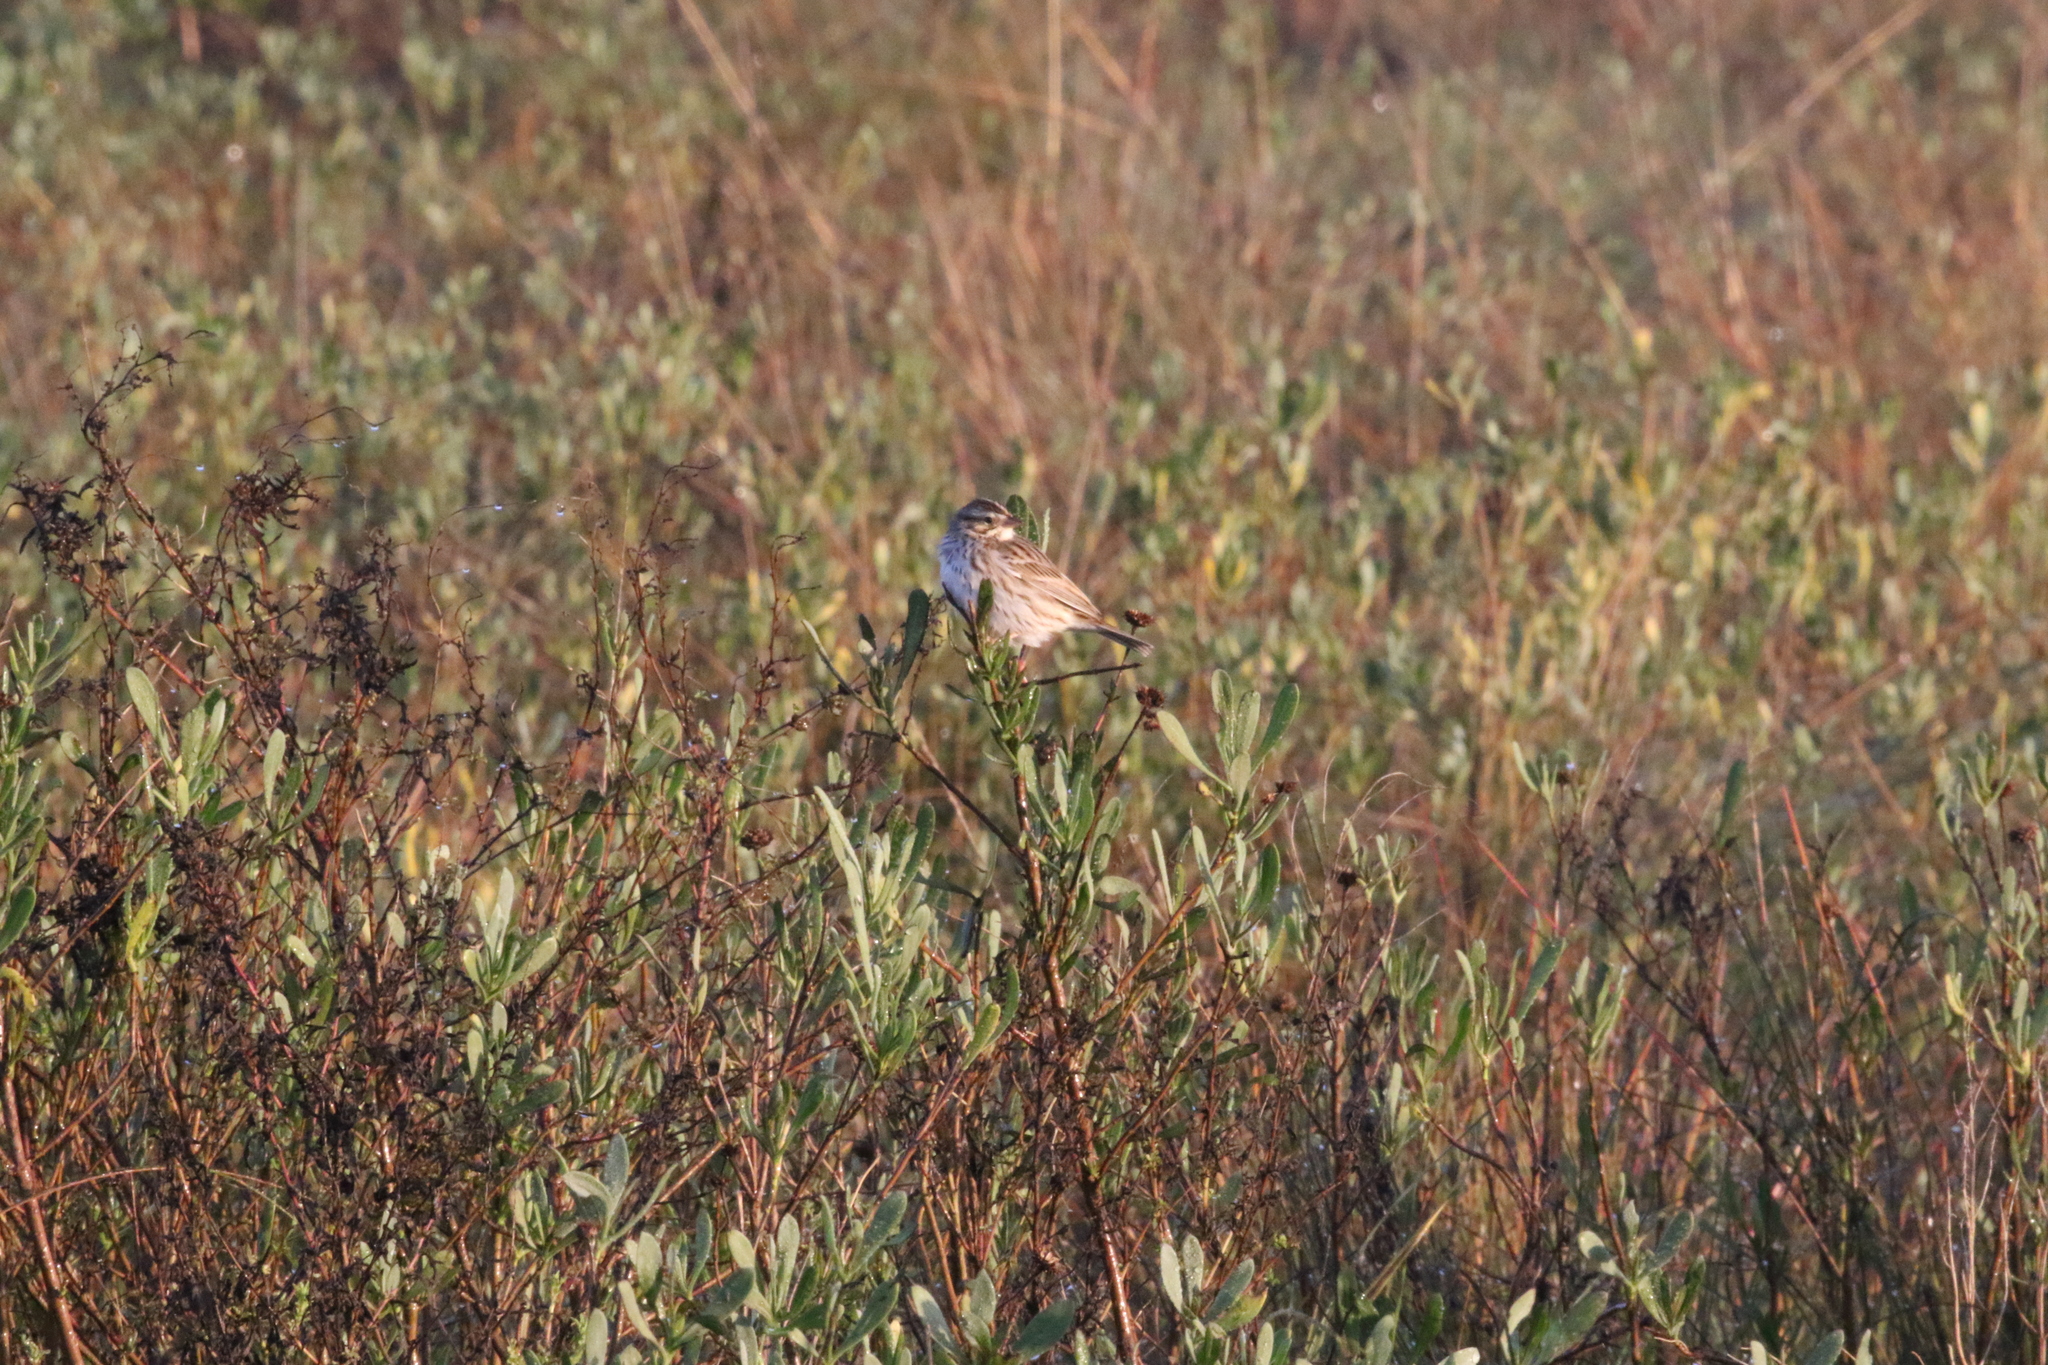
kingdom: Animalia
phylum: Chordata
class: Aves
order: Passeriformes
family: Passerellidae
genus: Passerculus
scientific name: Passerculus sandwichensis
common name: Savannah sparrow
